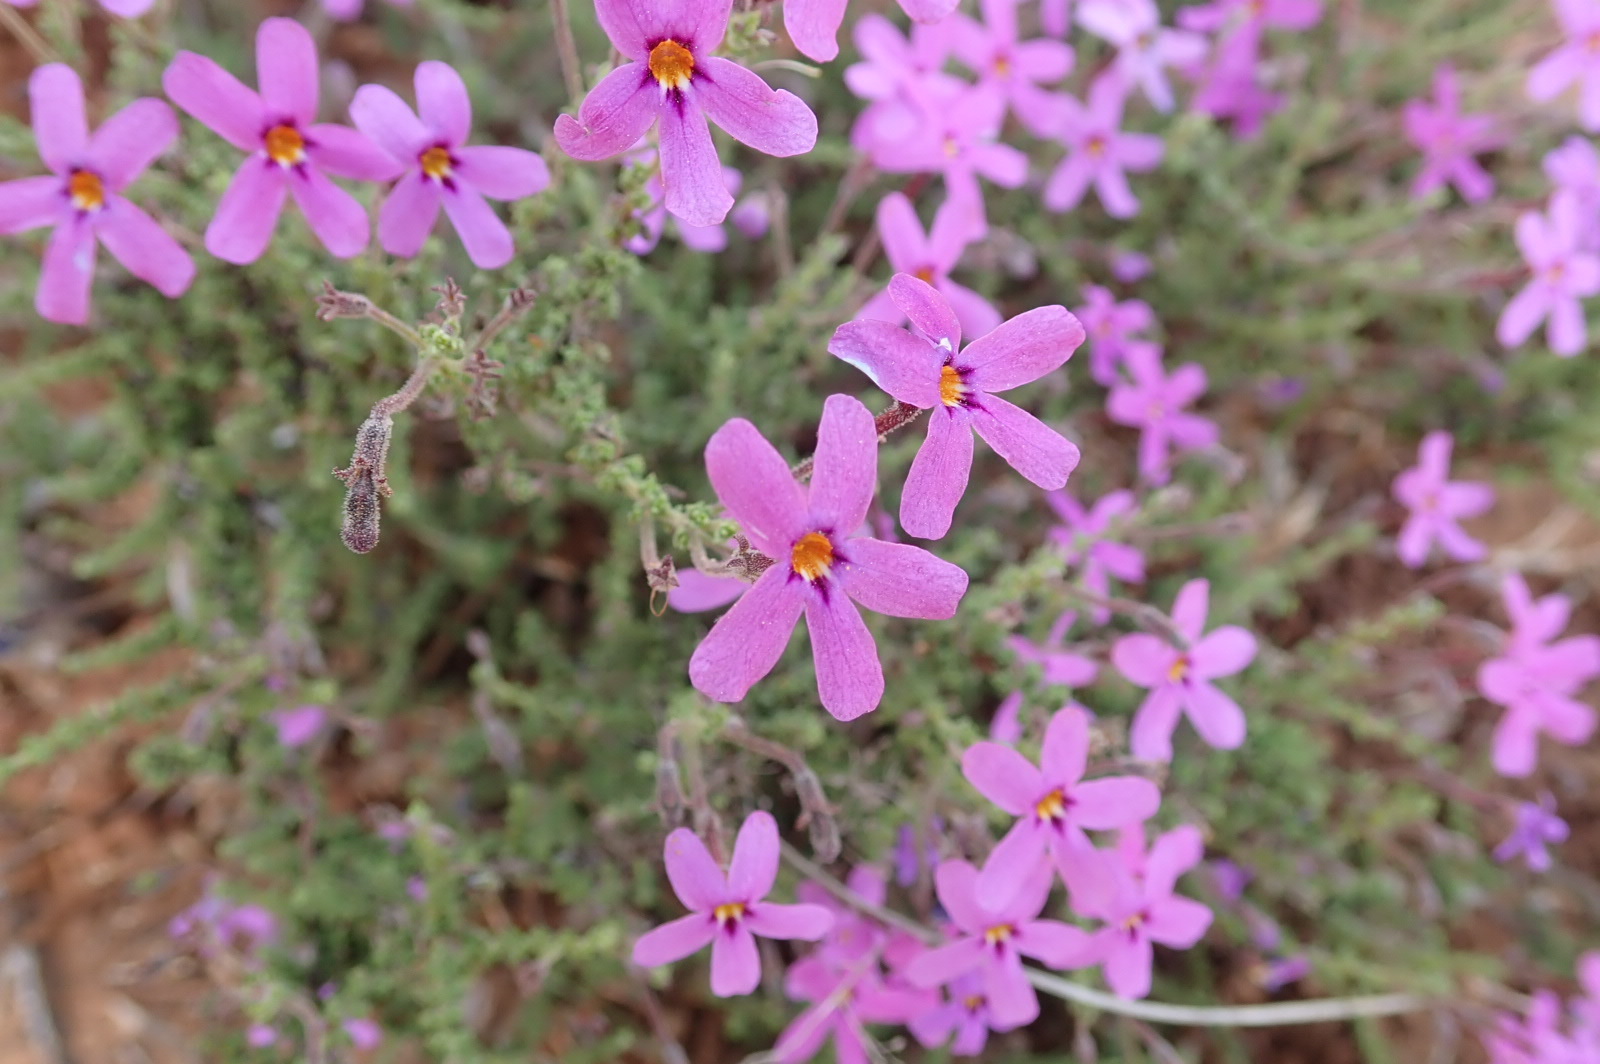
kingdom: Plantae
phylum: Tracheophyta
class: Magnoliopsida
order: Lamiales
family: Scrophulariaceae
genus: Jamesbrittenia
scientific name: Jamesbrittenia tortuosa
